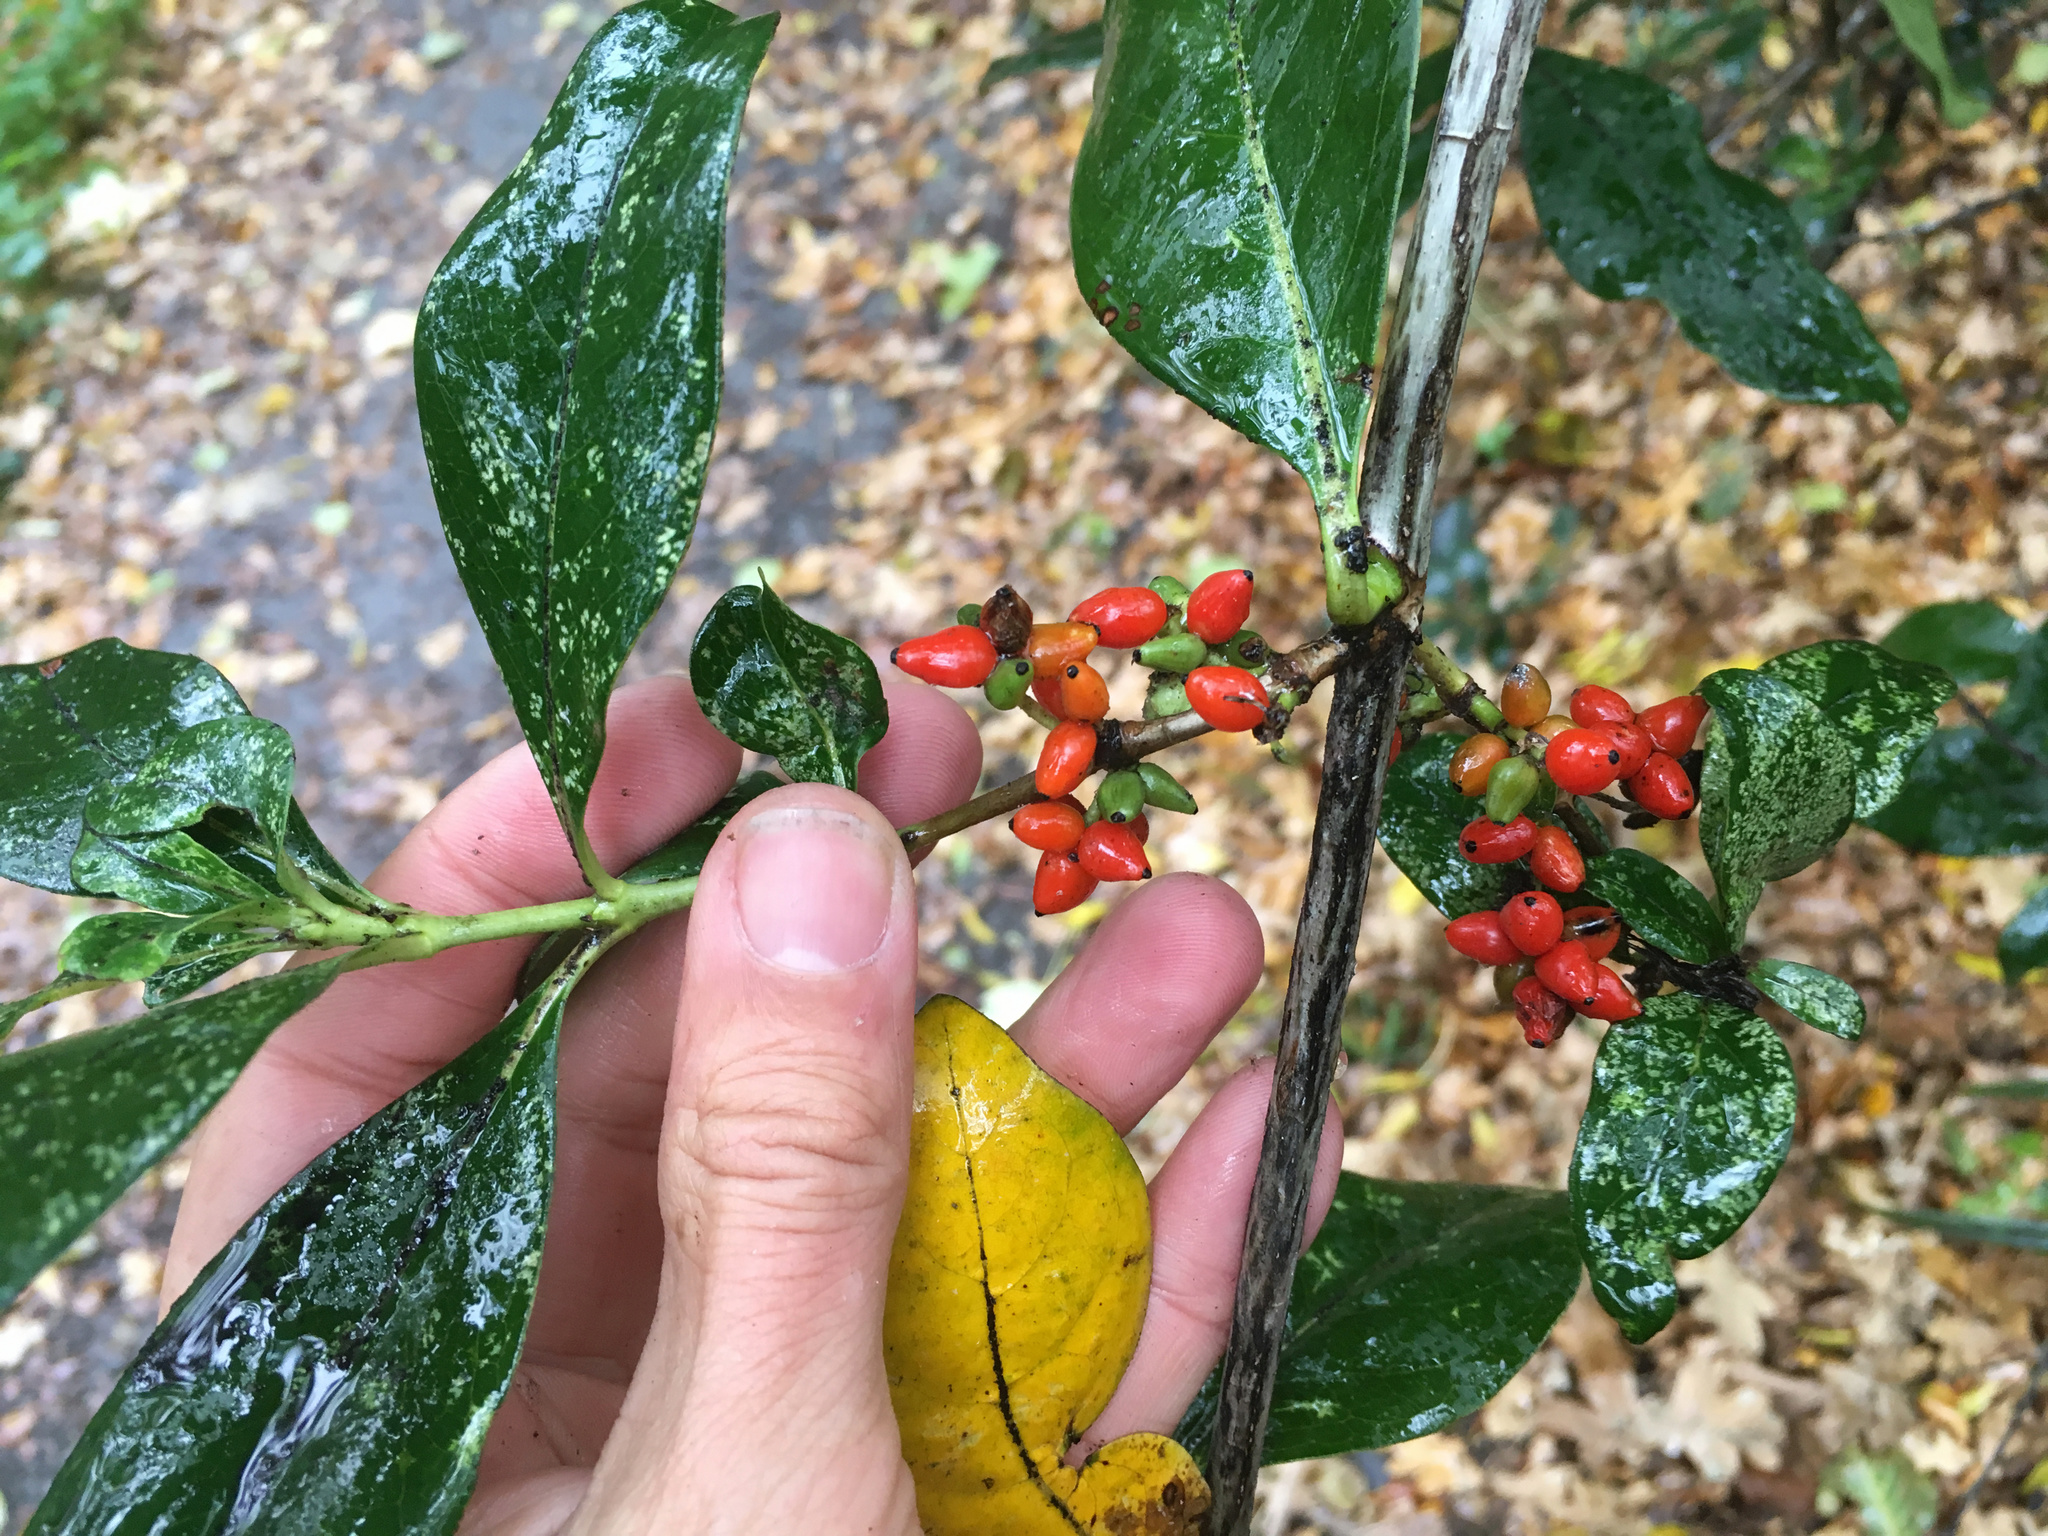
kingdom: Plantae
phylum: Tracheophyta
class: Magnoliopsida
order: Gentianales
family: Rubiaceae
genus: Coprosma
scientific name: Coprosma robusta
